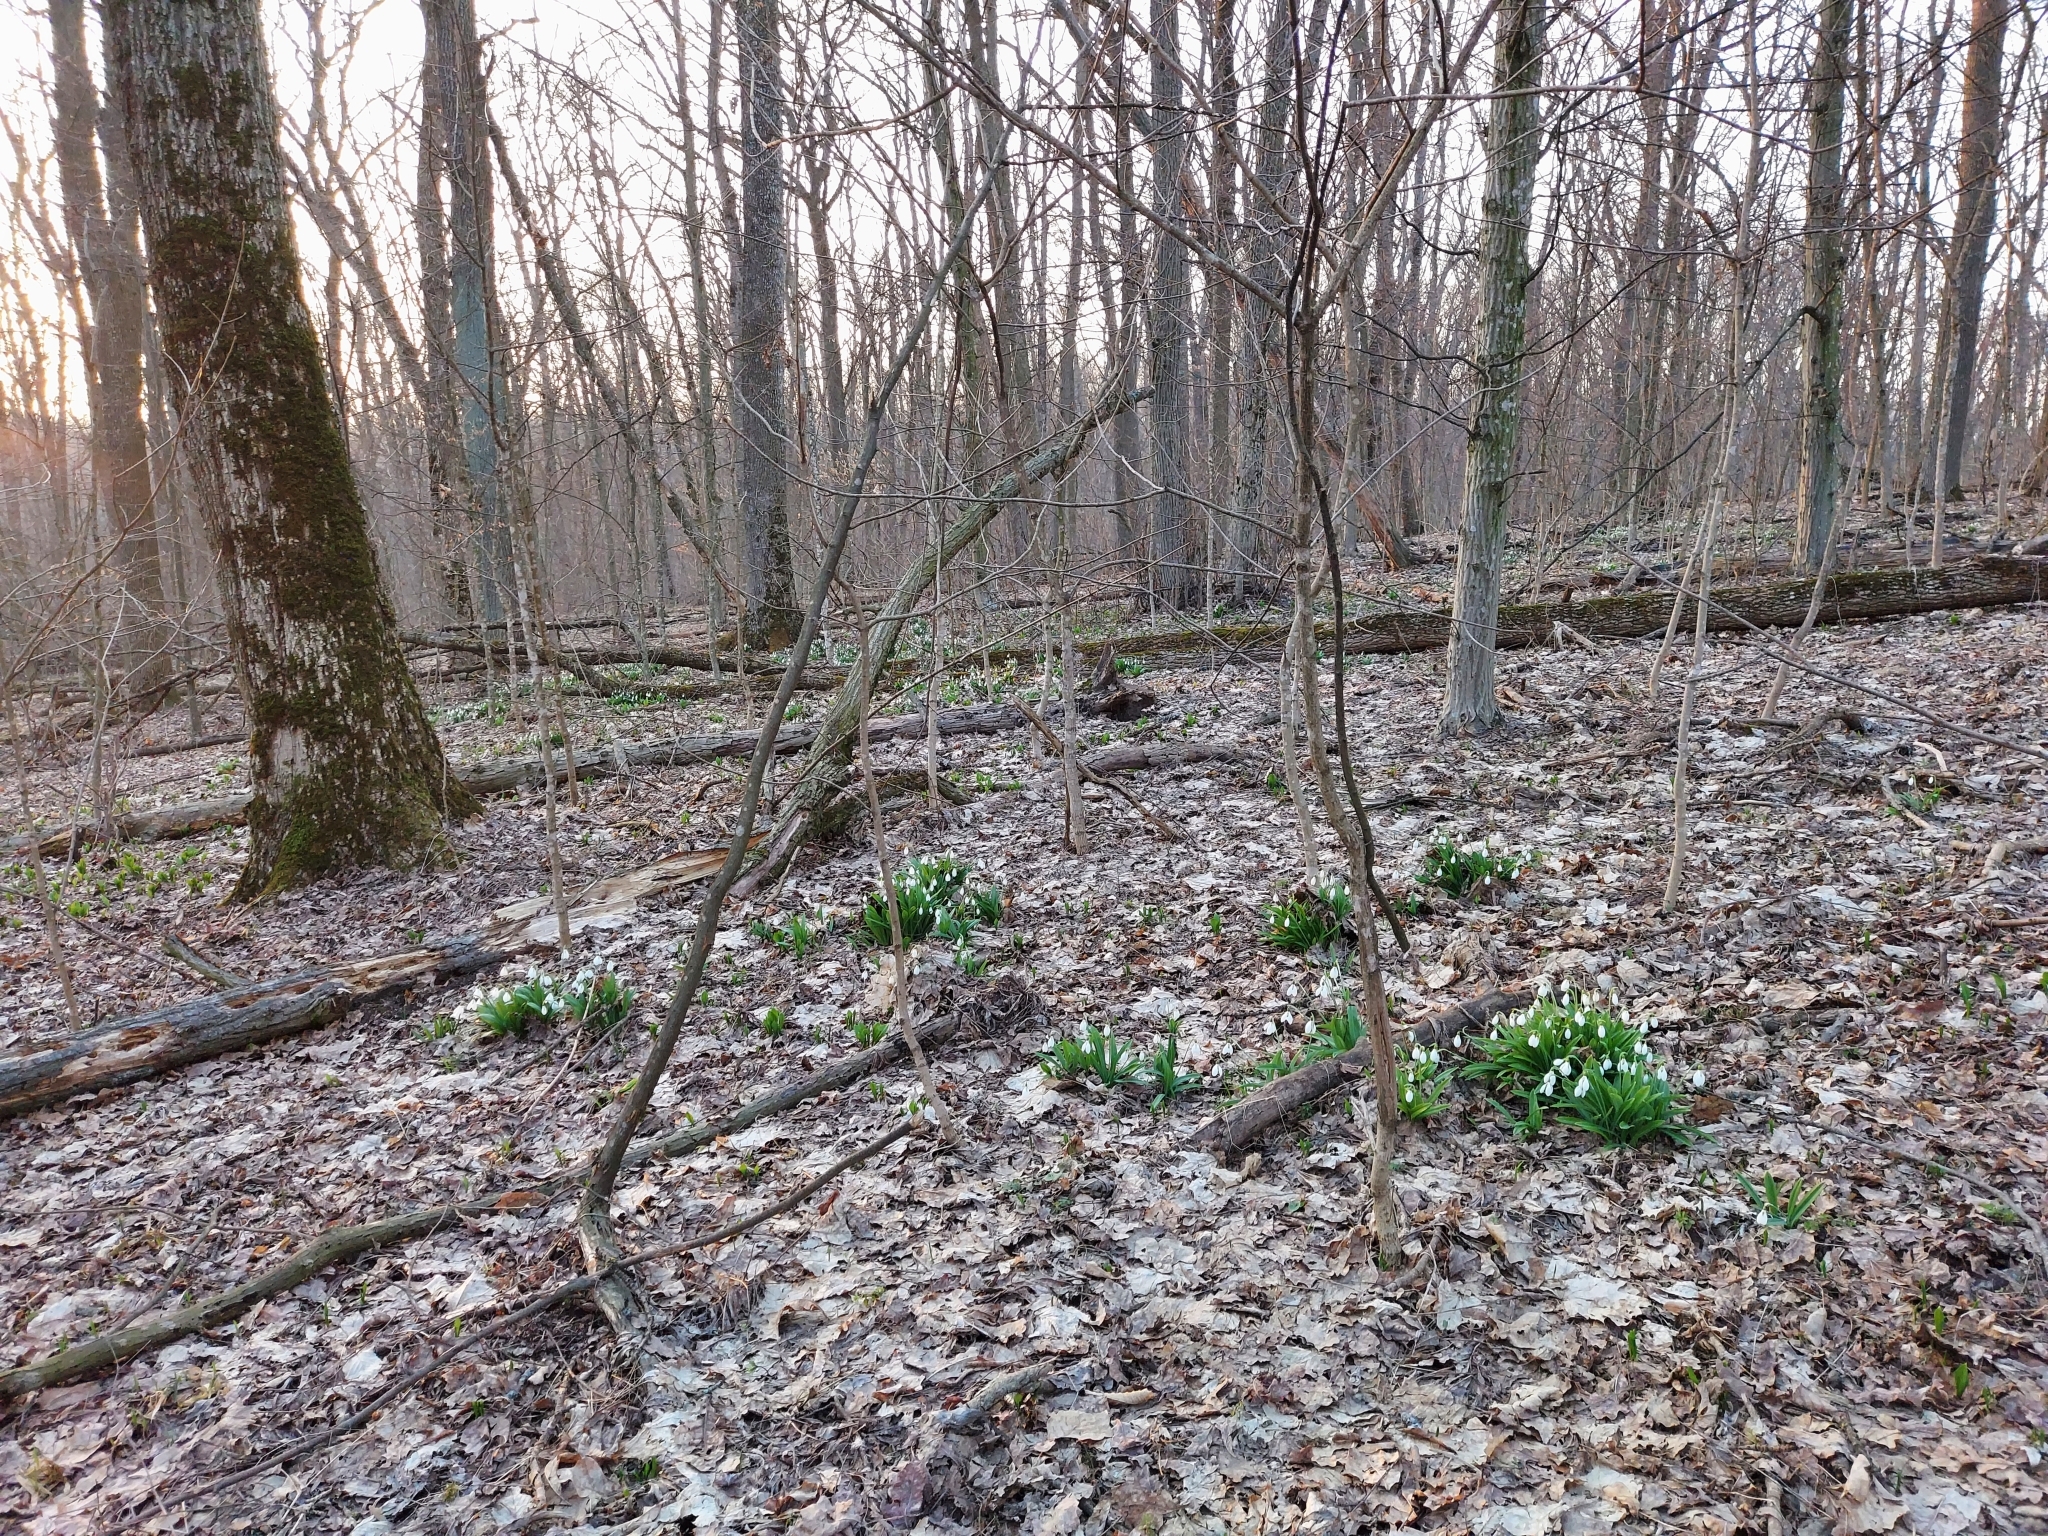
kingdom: Plantae
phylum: Tracheophyta
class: Liliopsida
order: Asparagales
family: Amaryllidaceae
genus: Galanthus
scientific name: Galanthus plicatus
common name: Pleated snowdrop
